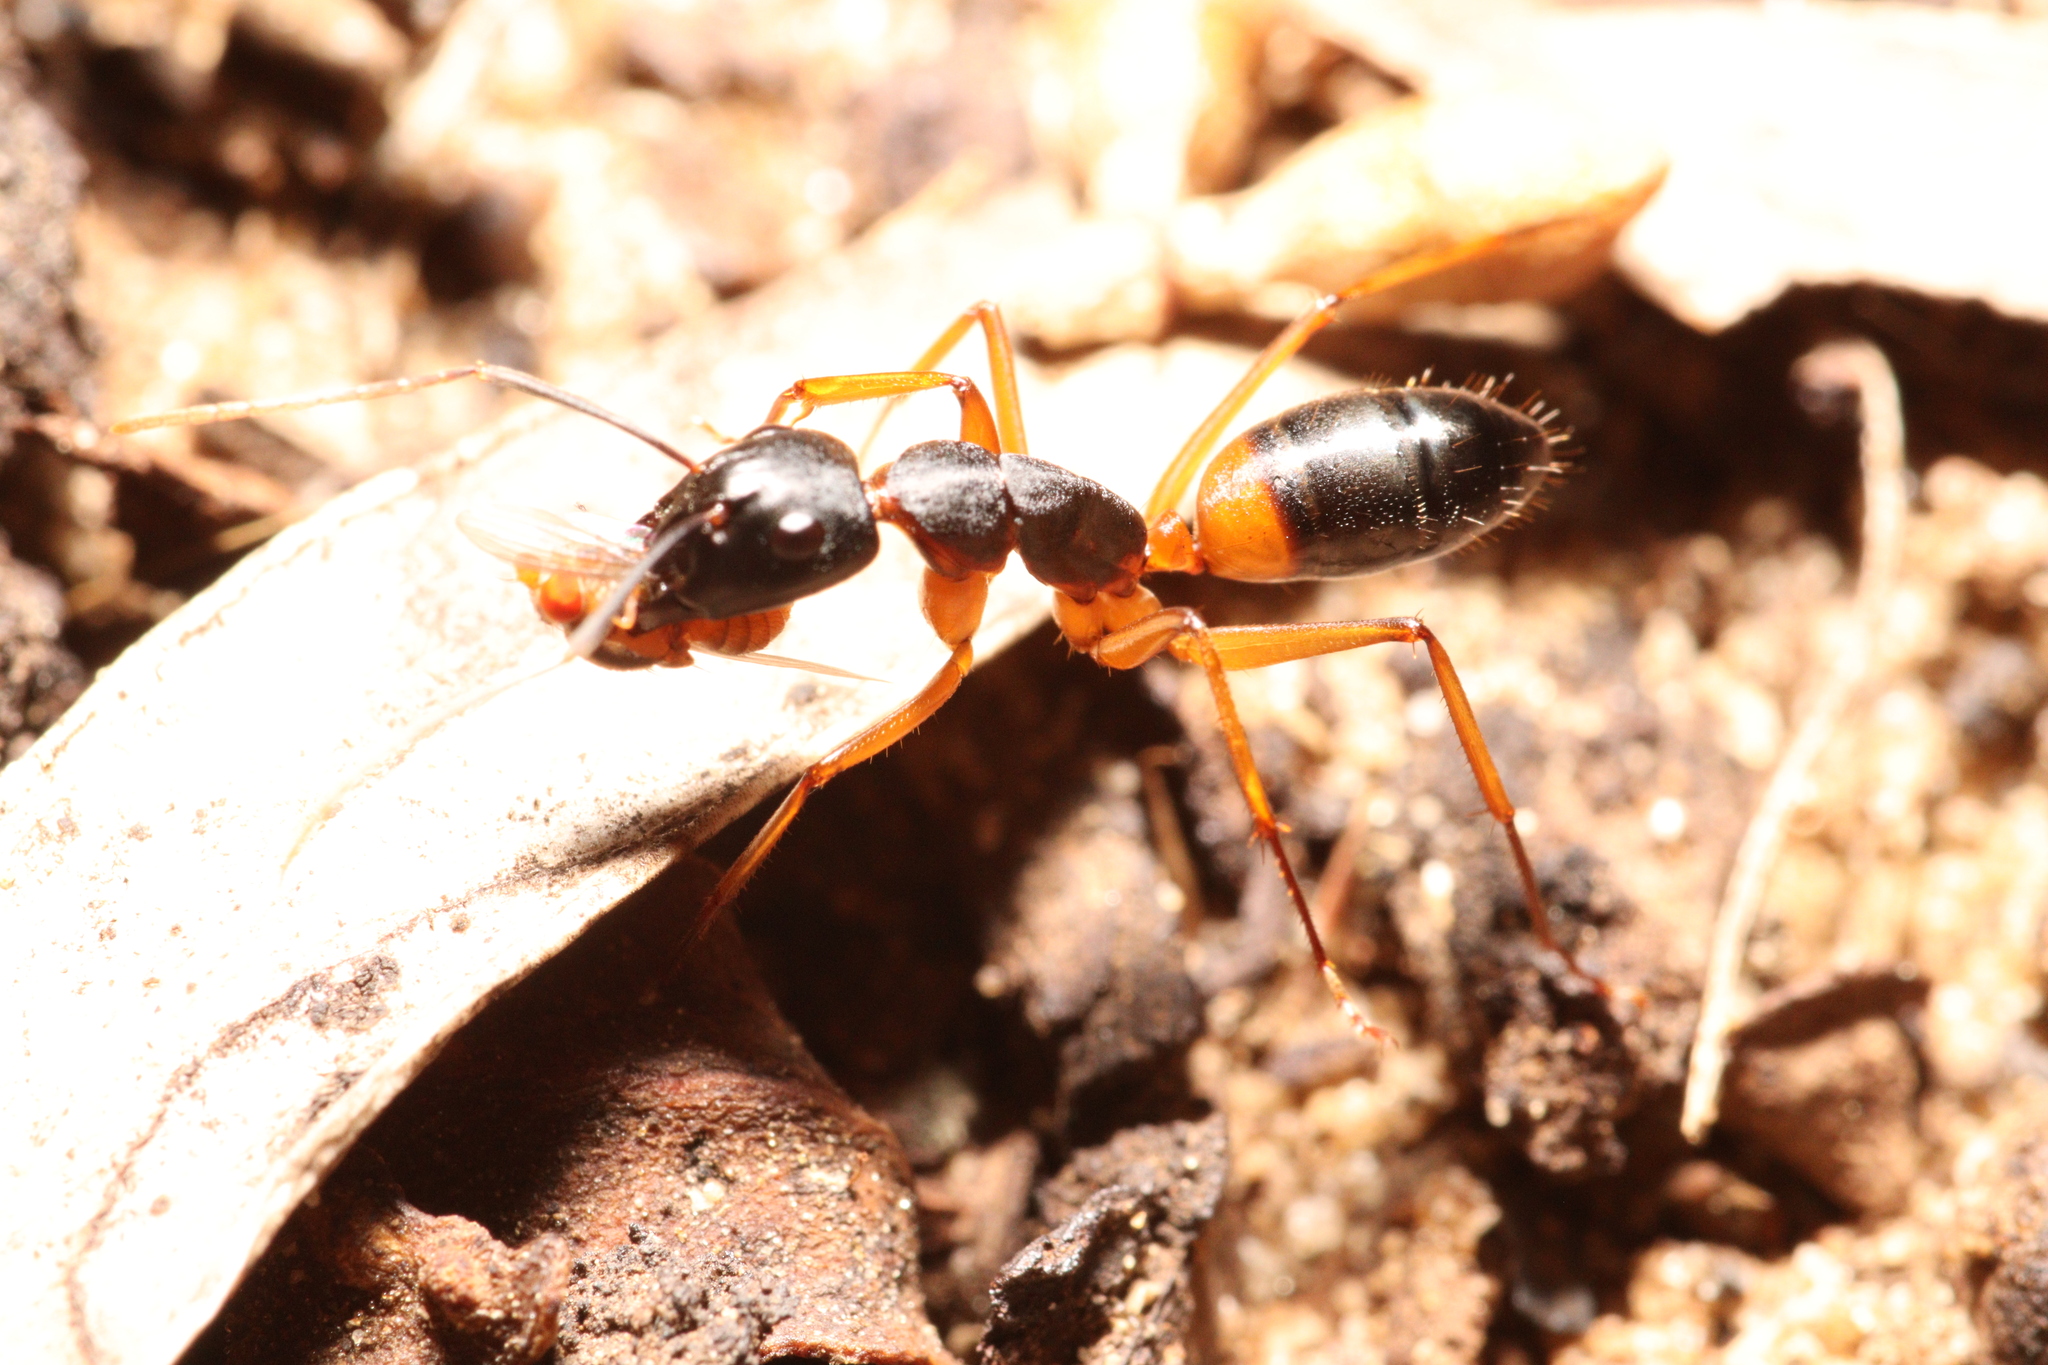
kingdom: Animalia
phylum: Arthropoda
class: Insecta
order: Hymenoptera
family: Formicidae
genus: Camponotus
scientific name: Camponotus consobrinus
